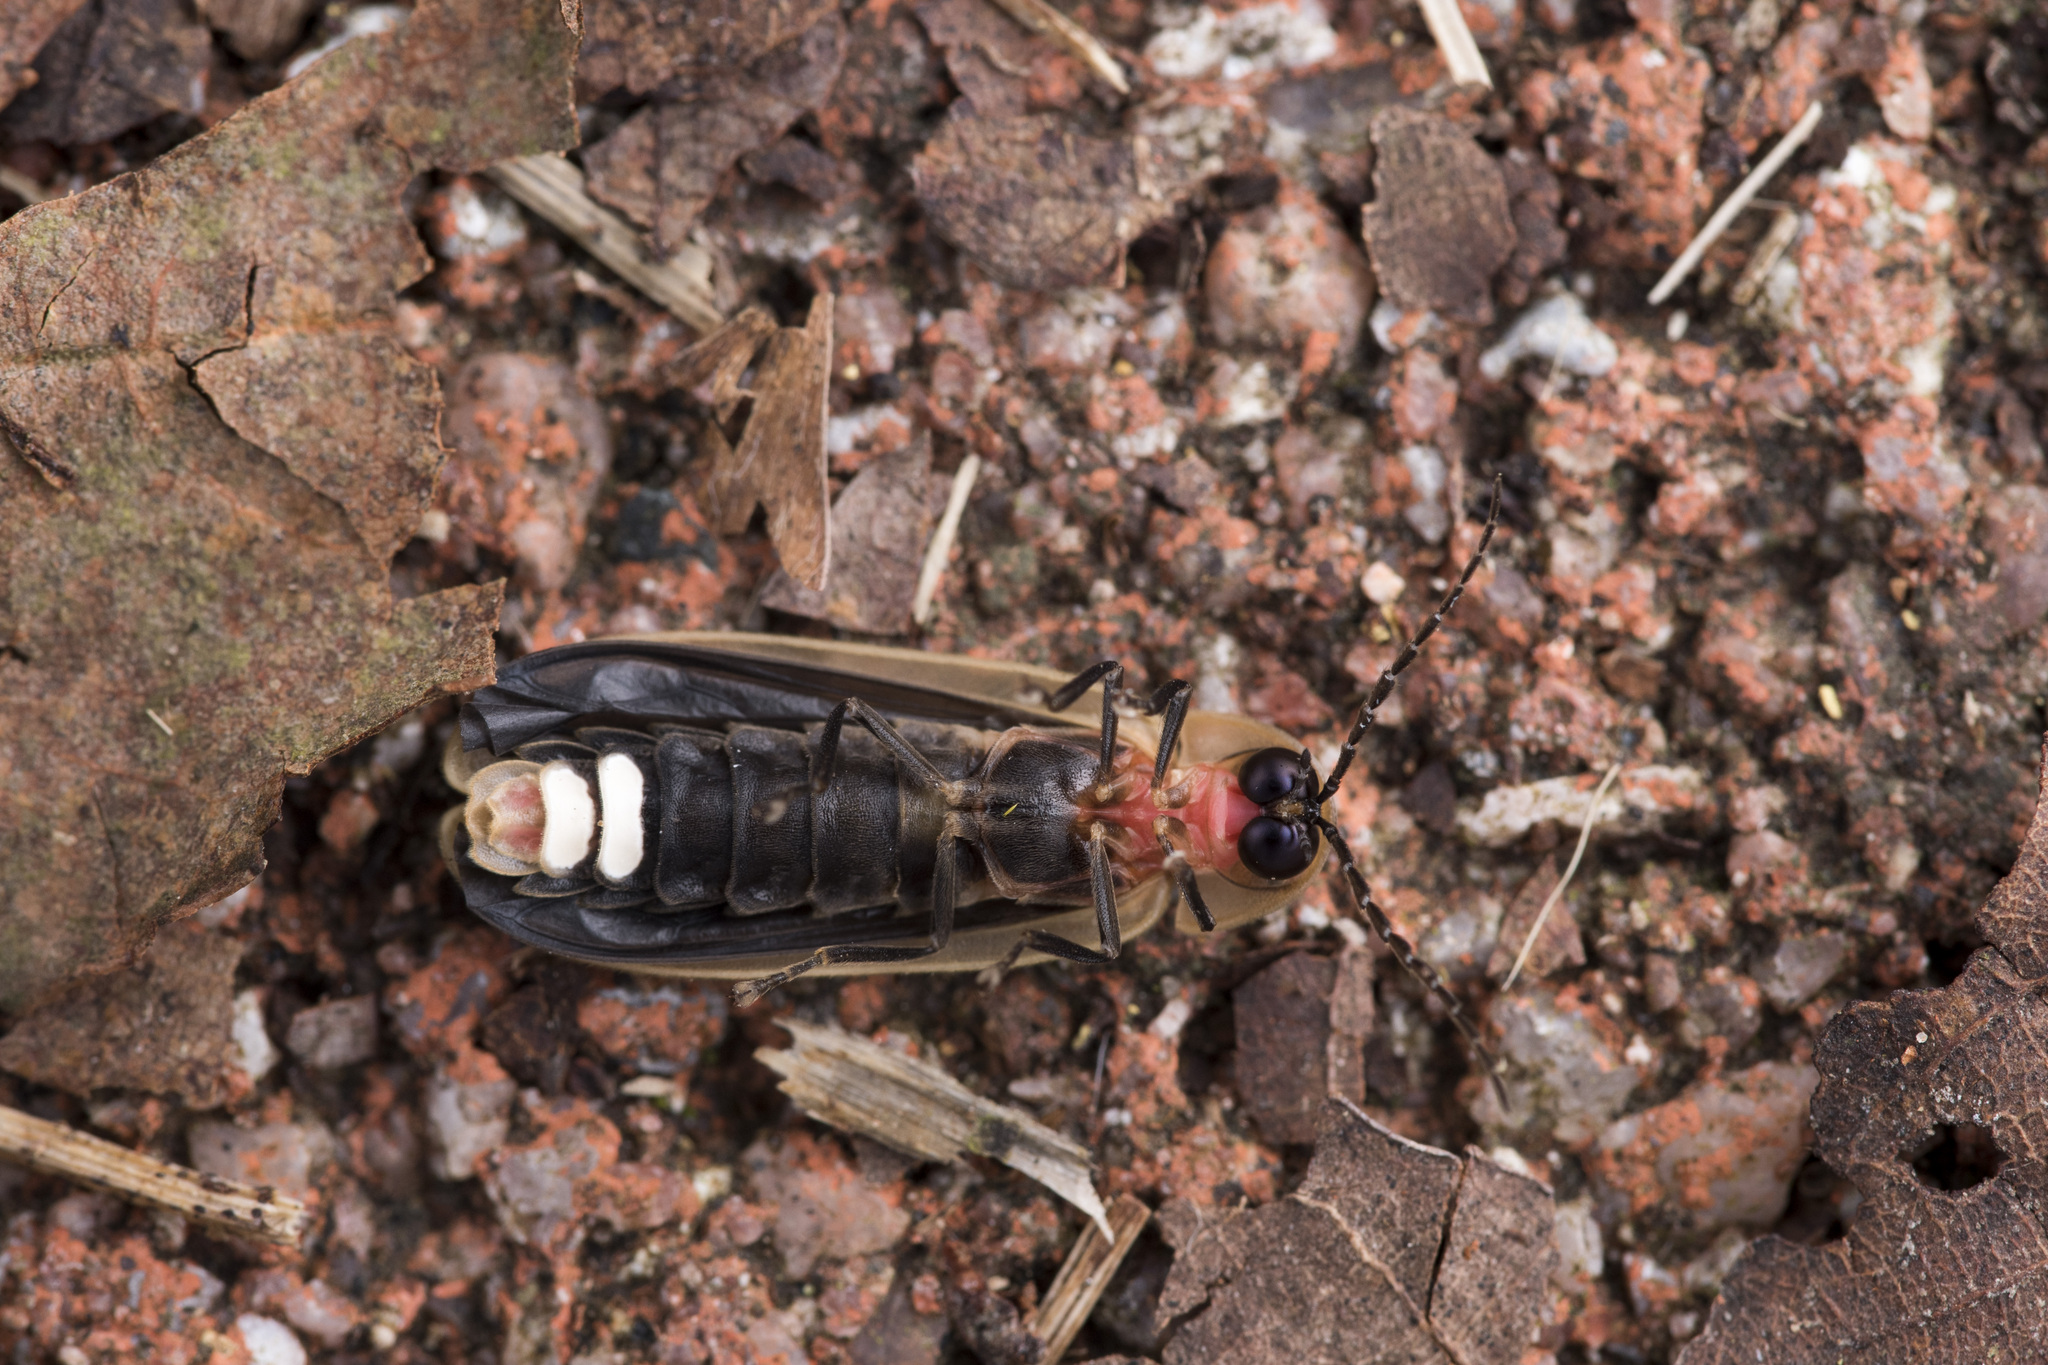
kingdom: Animalia
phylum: Arthropoda
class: Insecta
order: Coleoptera
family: Lampyridae
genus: Diaphanes
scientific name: Diaphanes lampyroides
